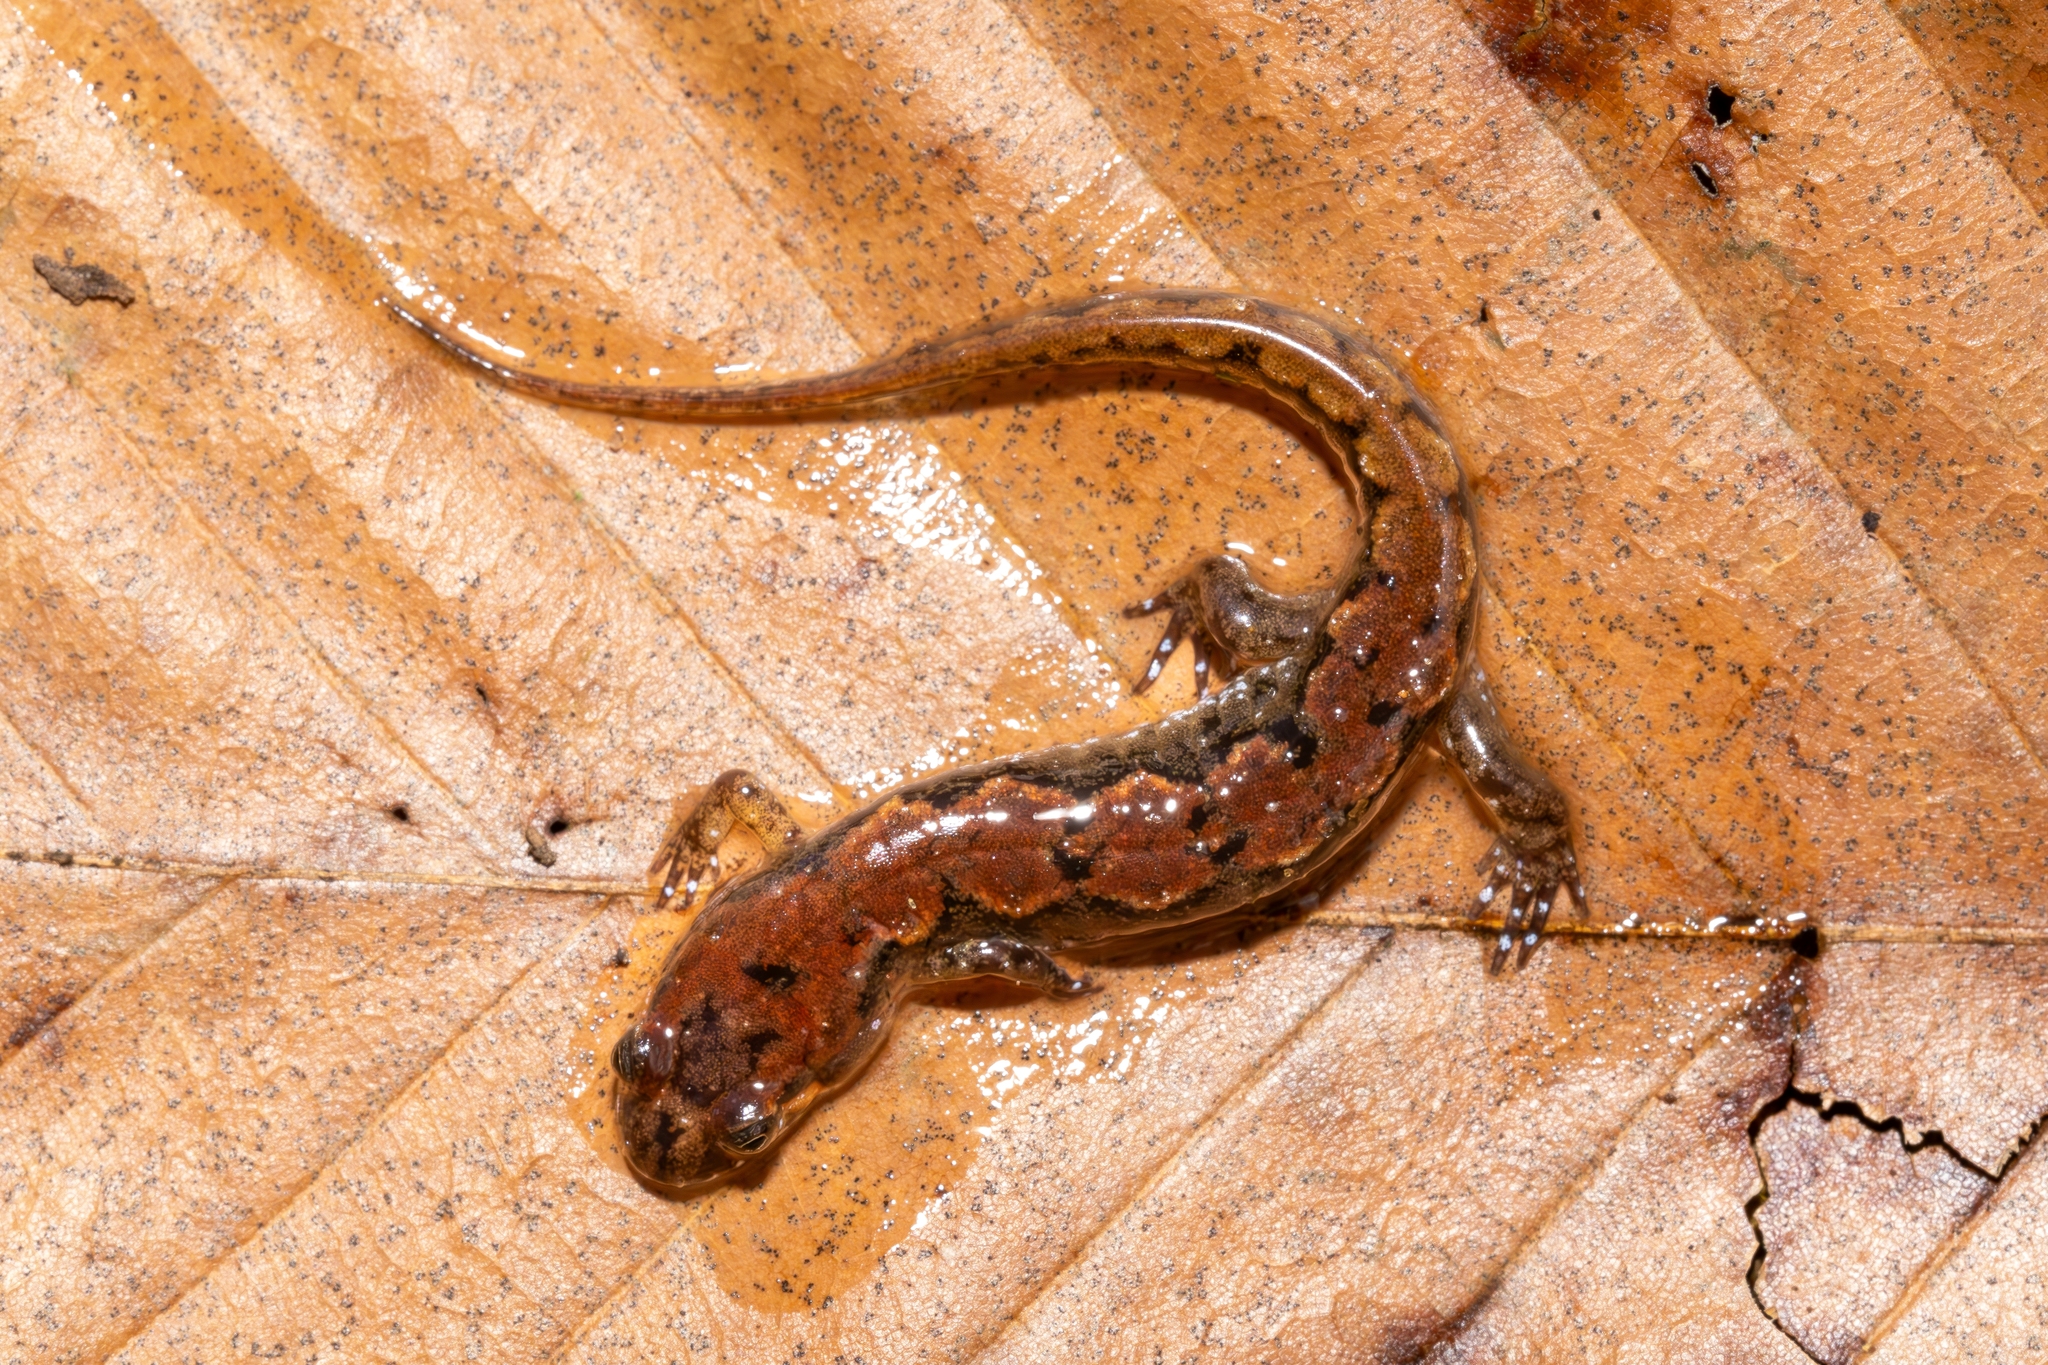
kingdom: Animalia
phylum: Chordata
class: Amphibia
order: Caudata
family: Plethodontidae
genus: Desmognathus
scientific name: Desmognathus conanti
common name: Spotted dusky salamander
